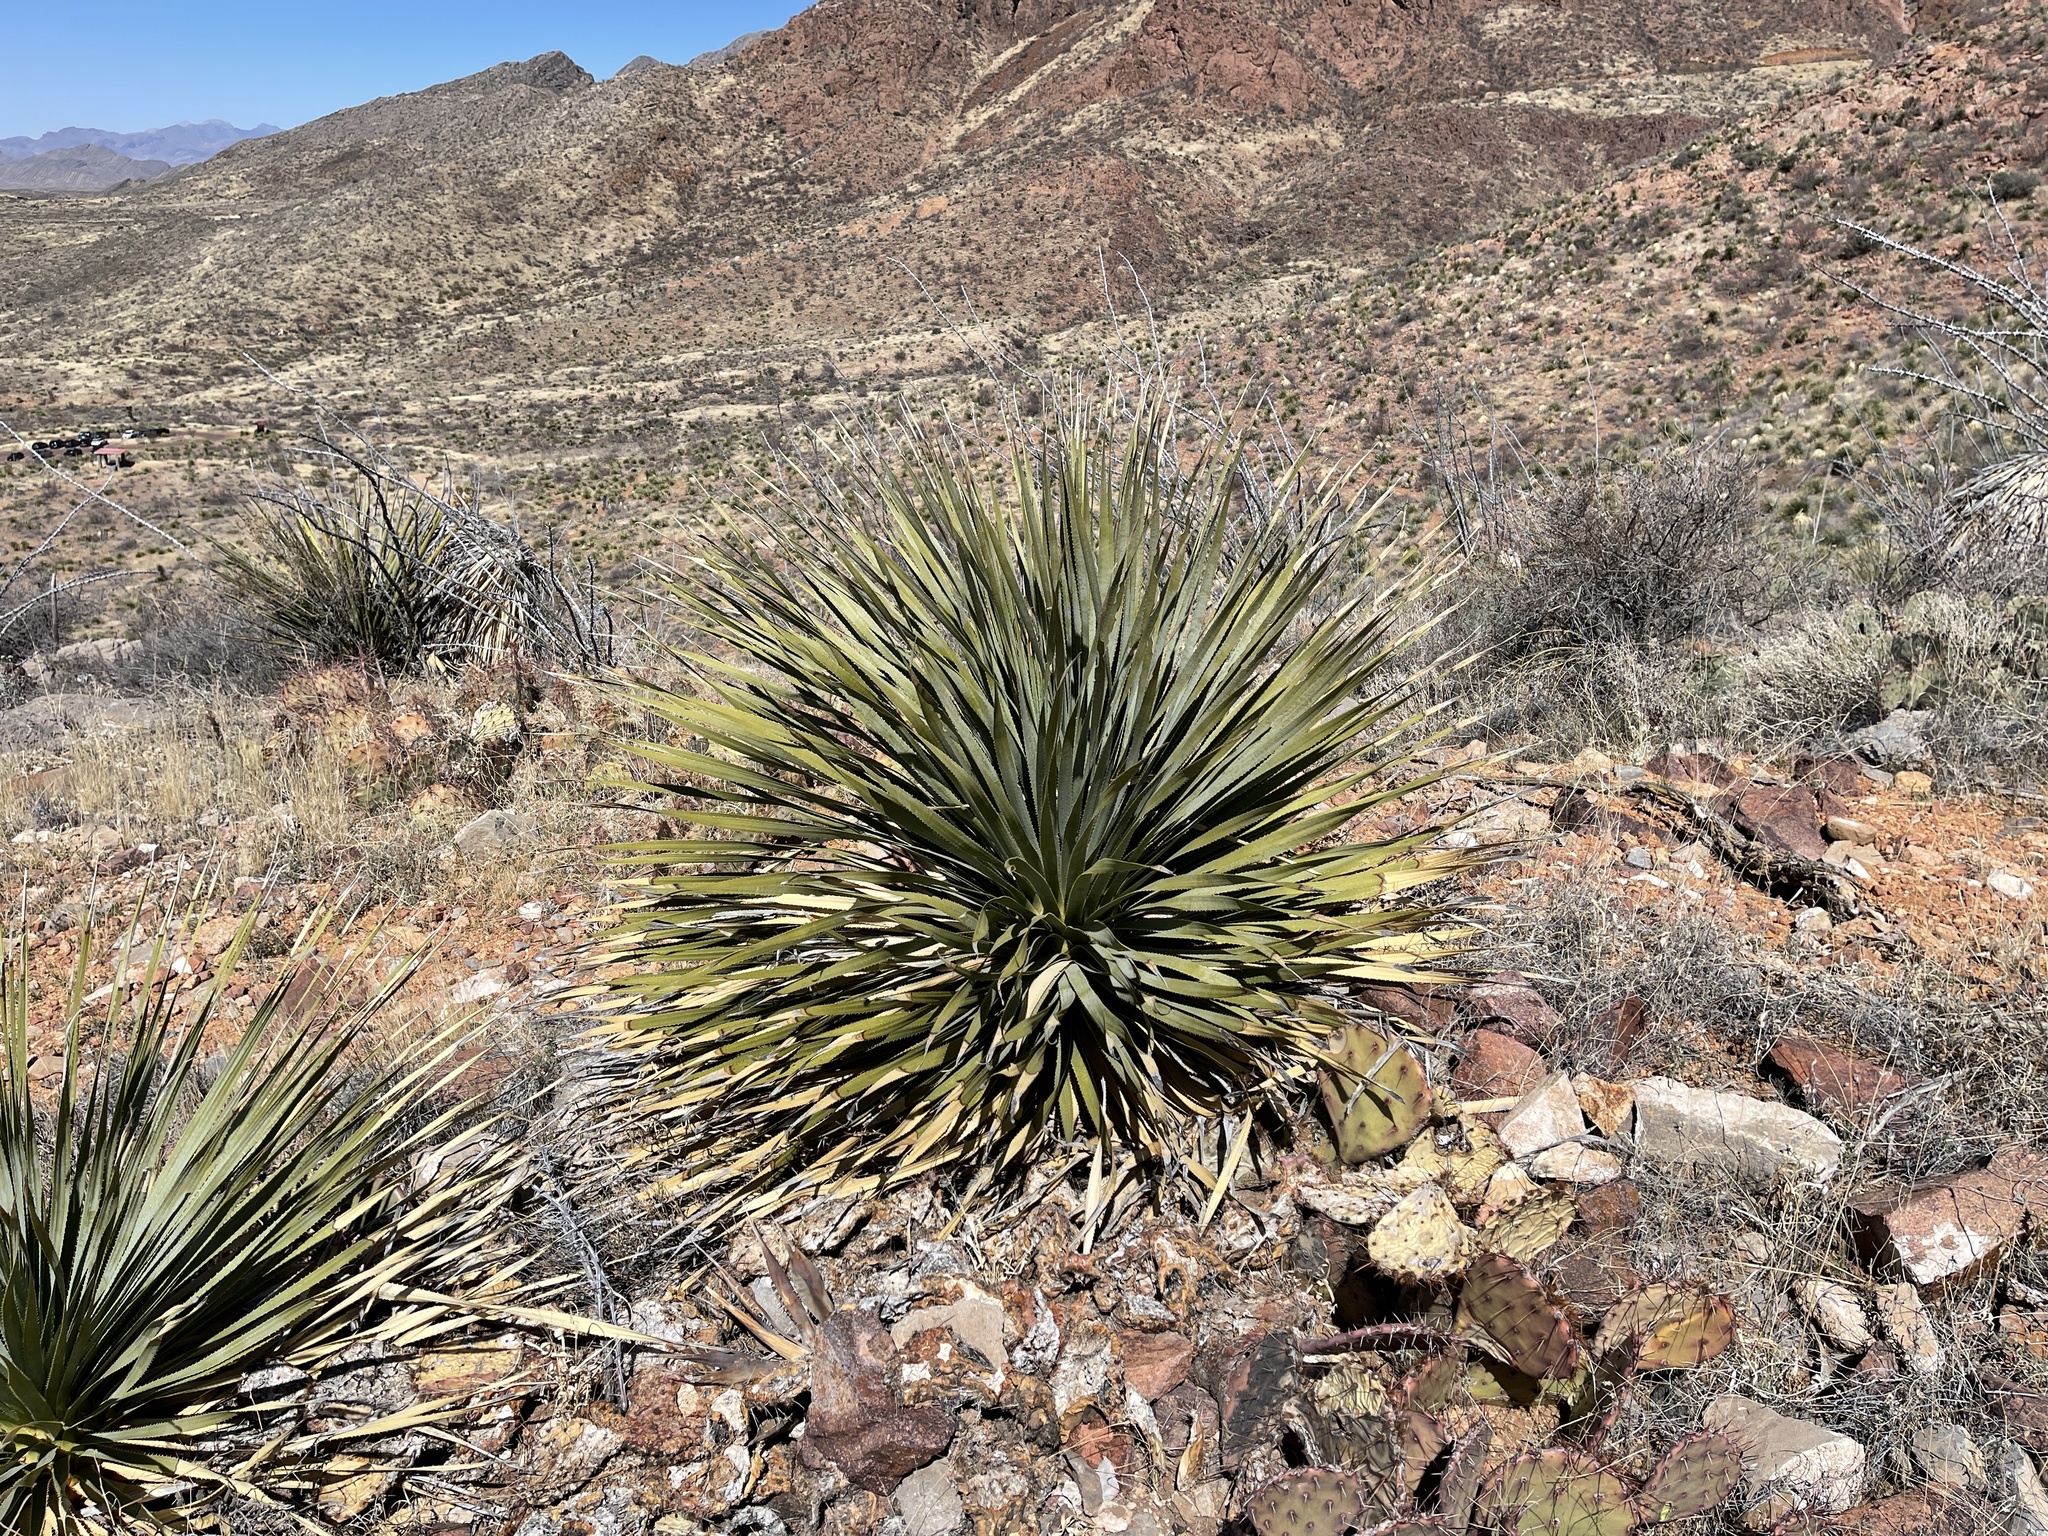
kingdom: Plantae
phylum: Tracheophyta
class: Liliopsida
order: Asparagales
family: Asparagaceae
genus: Dasylirion
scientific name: Dasylirion wheeleri
